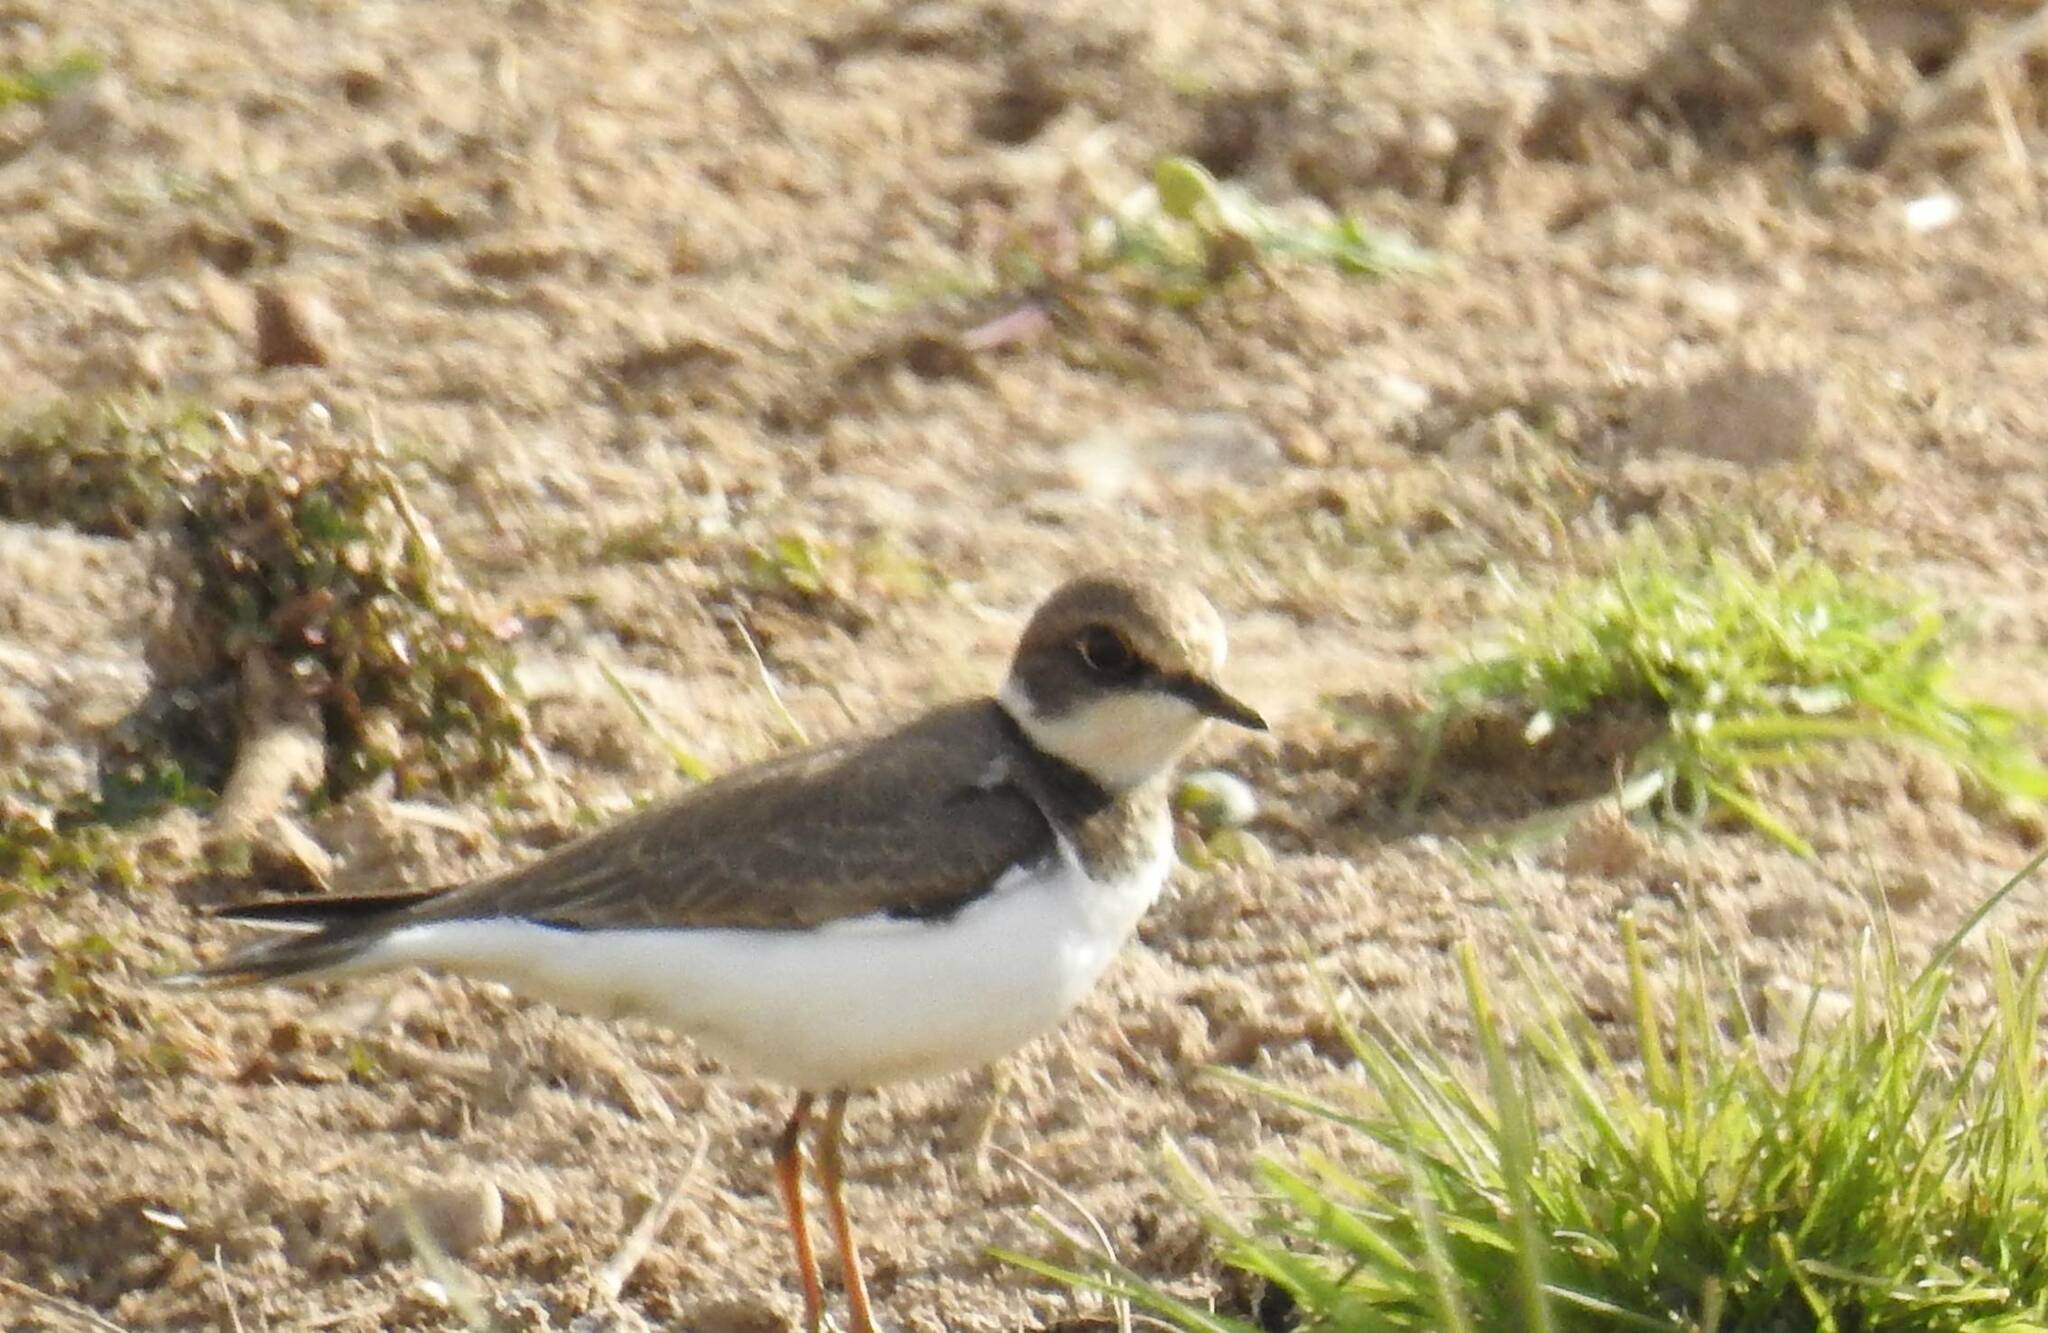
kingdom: Animalia
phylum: Chordata
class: Aves
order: Charadriiformes
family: Charadriidae
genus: Charadrius
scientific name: Charadrius dubius
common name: Little ringed plover
